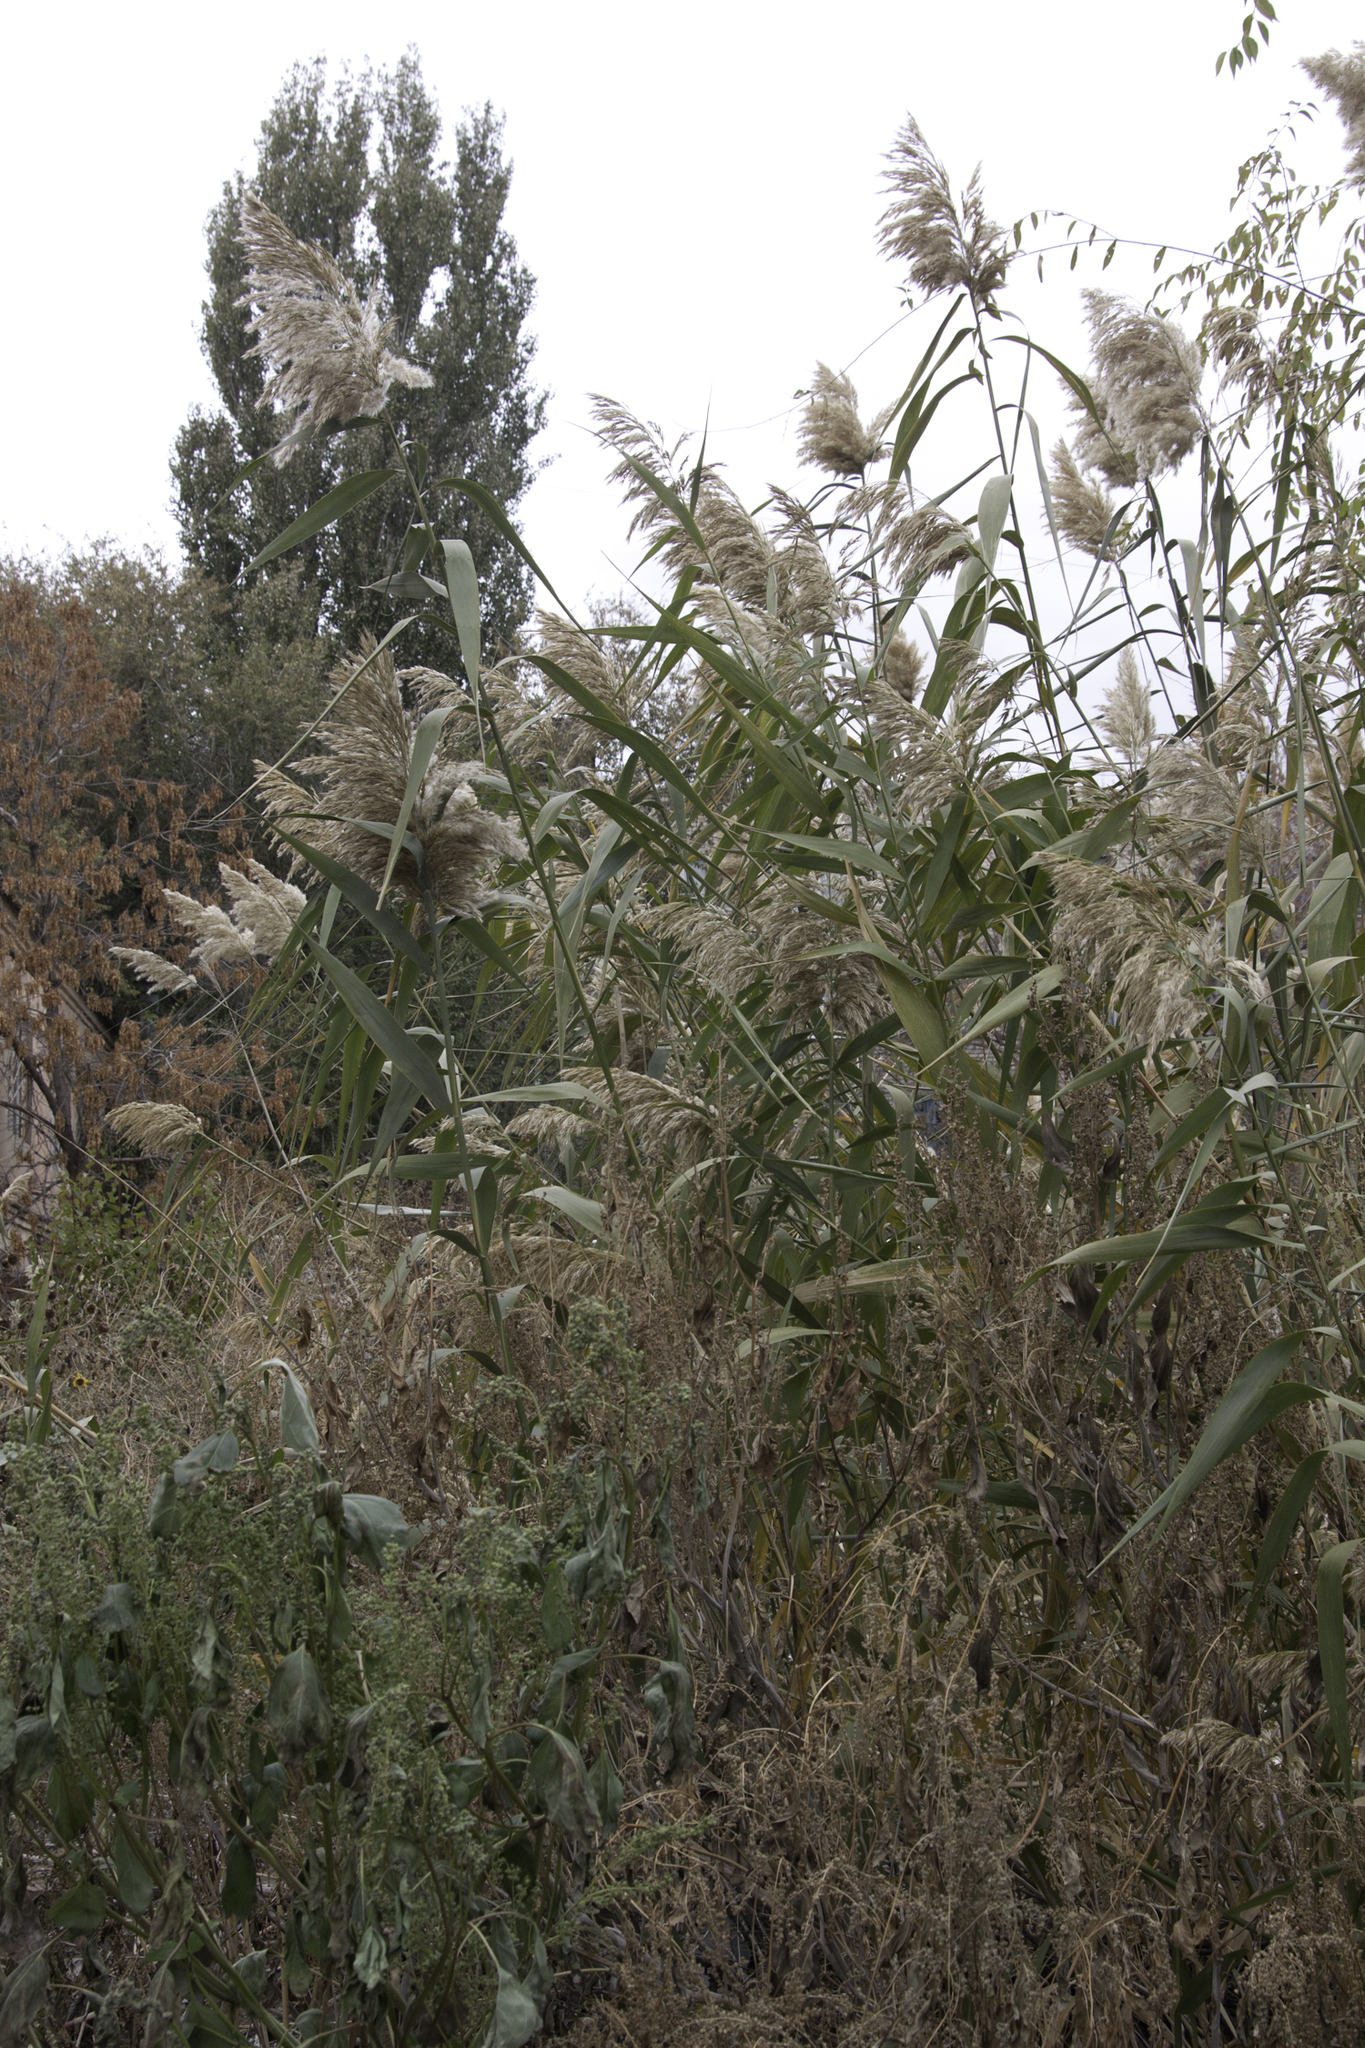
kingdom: Plantae
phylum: Tracheophyta
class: Liliopsida
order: Poales
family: Poaceae
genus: Phragmites
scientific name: Phragmites australis
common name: Common reed
